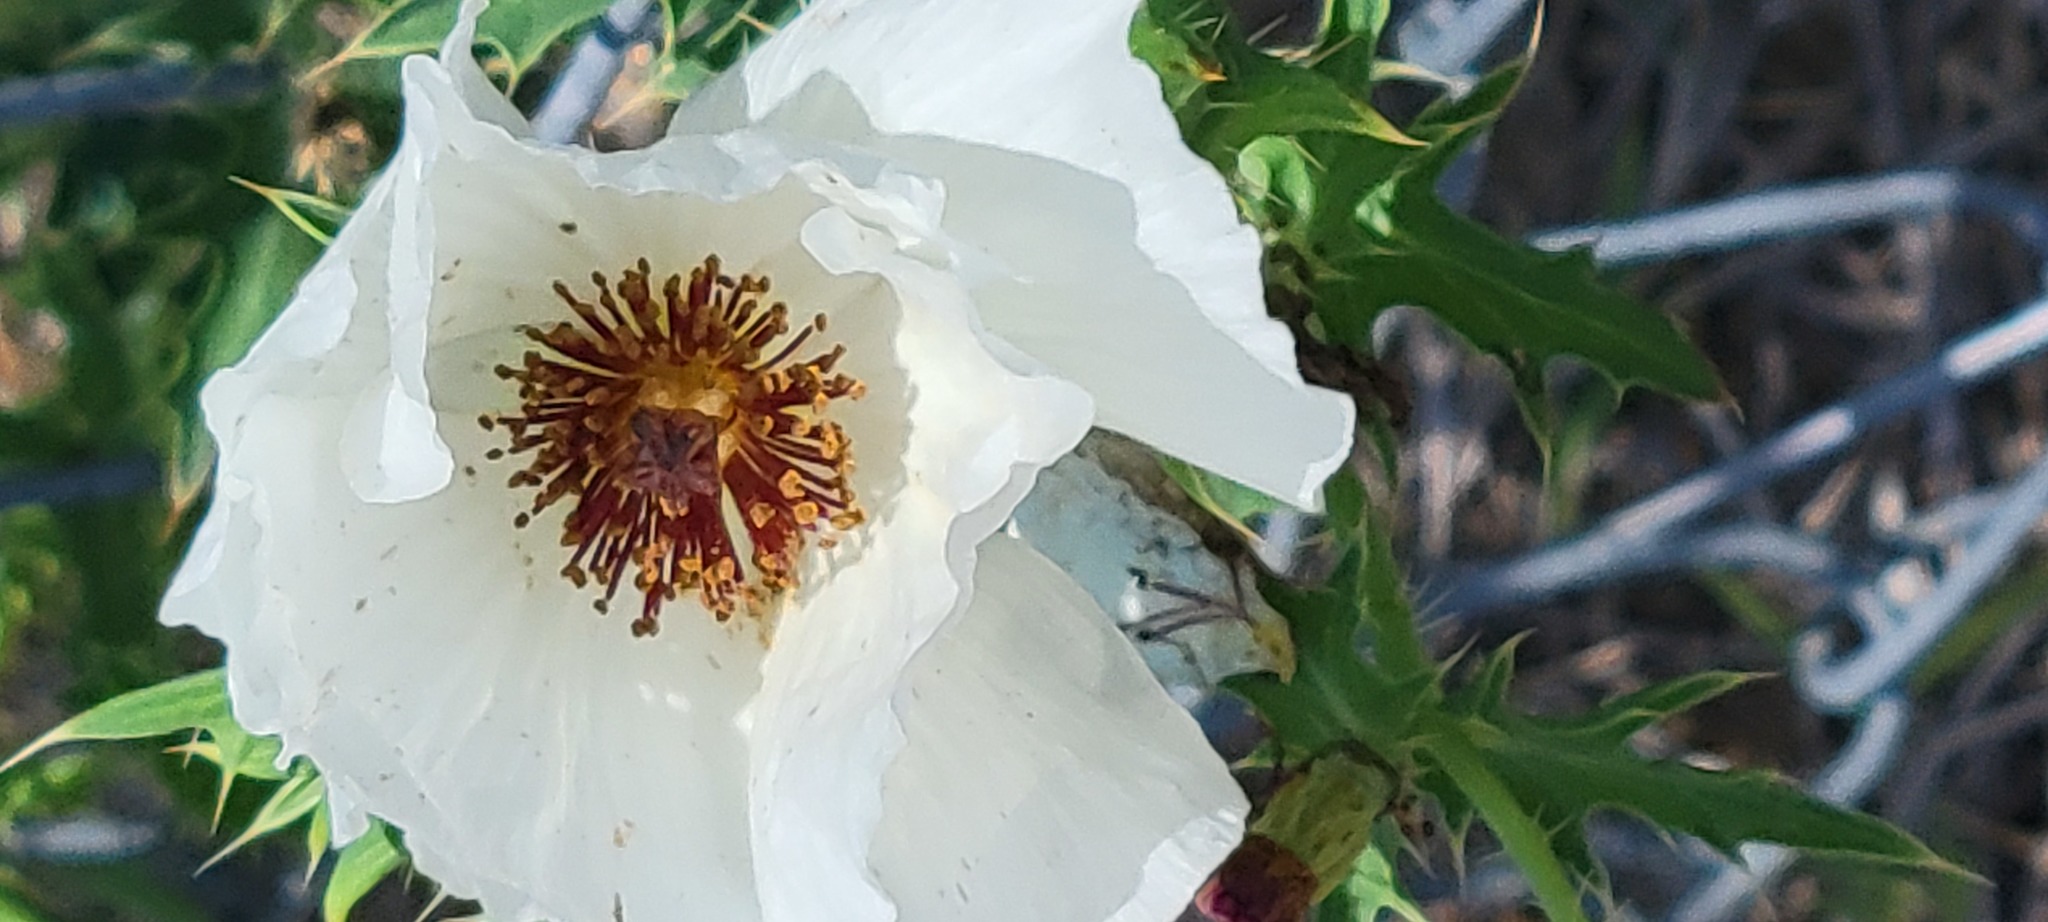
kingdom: Plantae
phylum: Tracheophyta
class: Magnoliopsida
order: Ranunculales
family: Papaveraceae
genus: Argemone
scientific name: Argemone sanguinea
